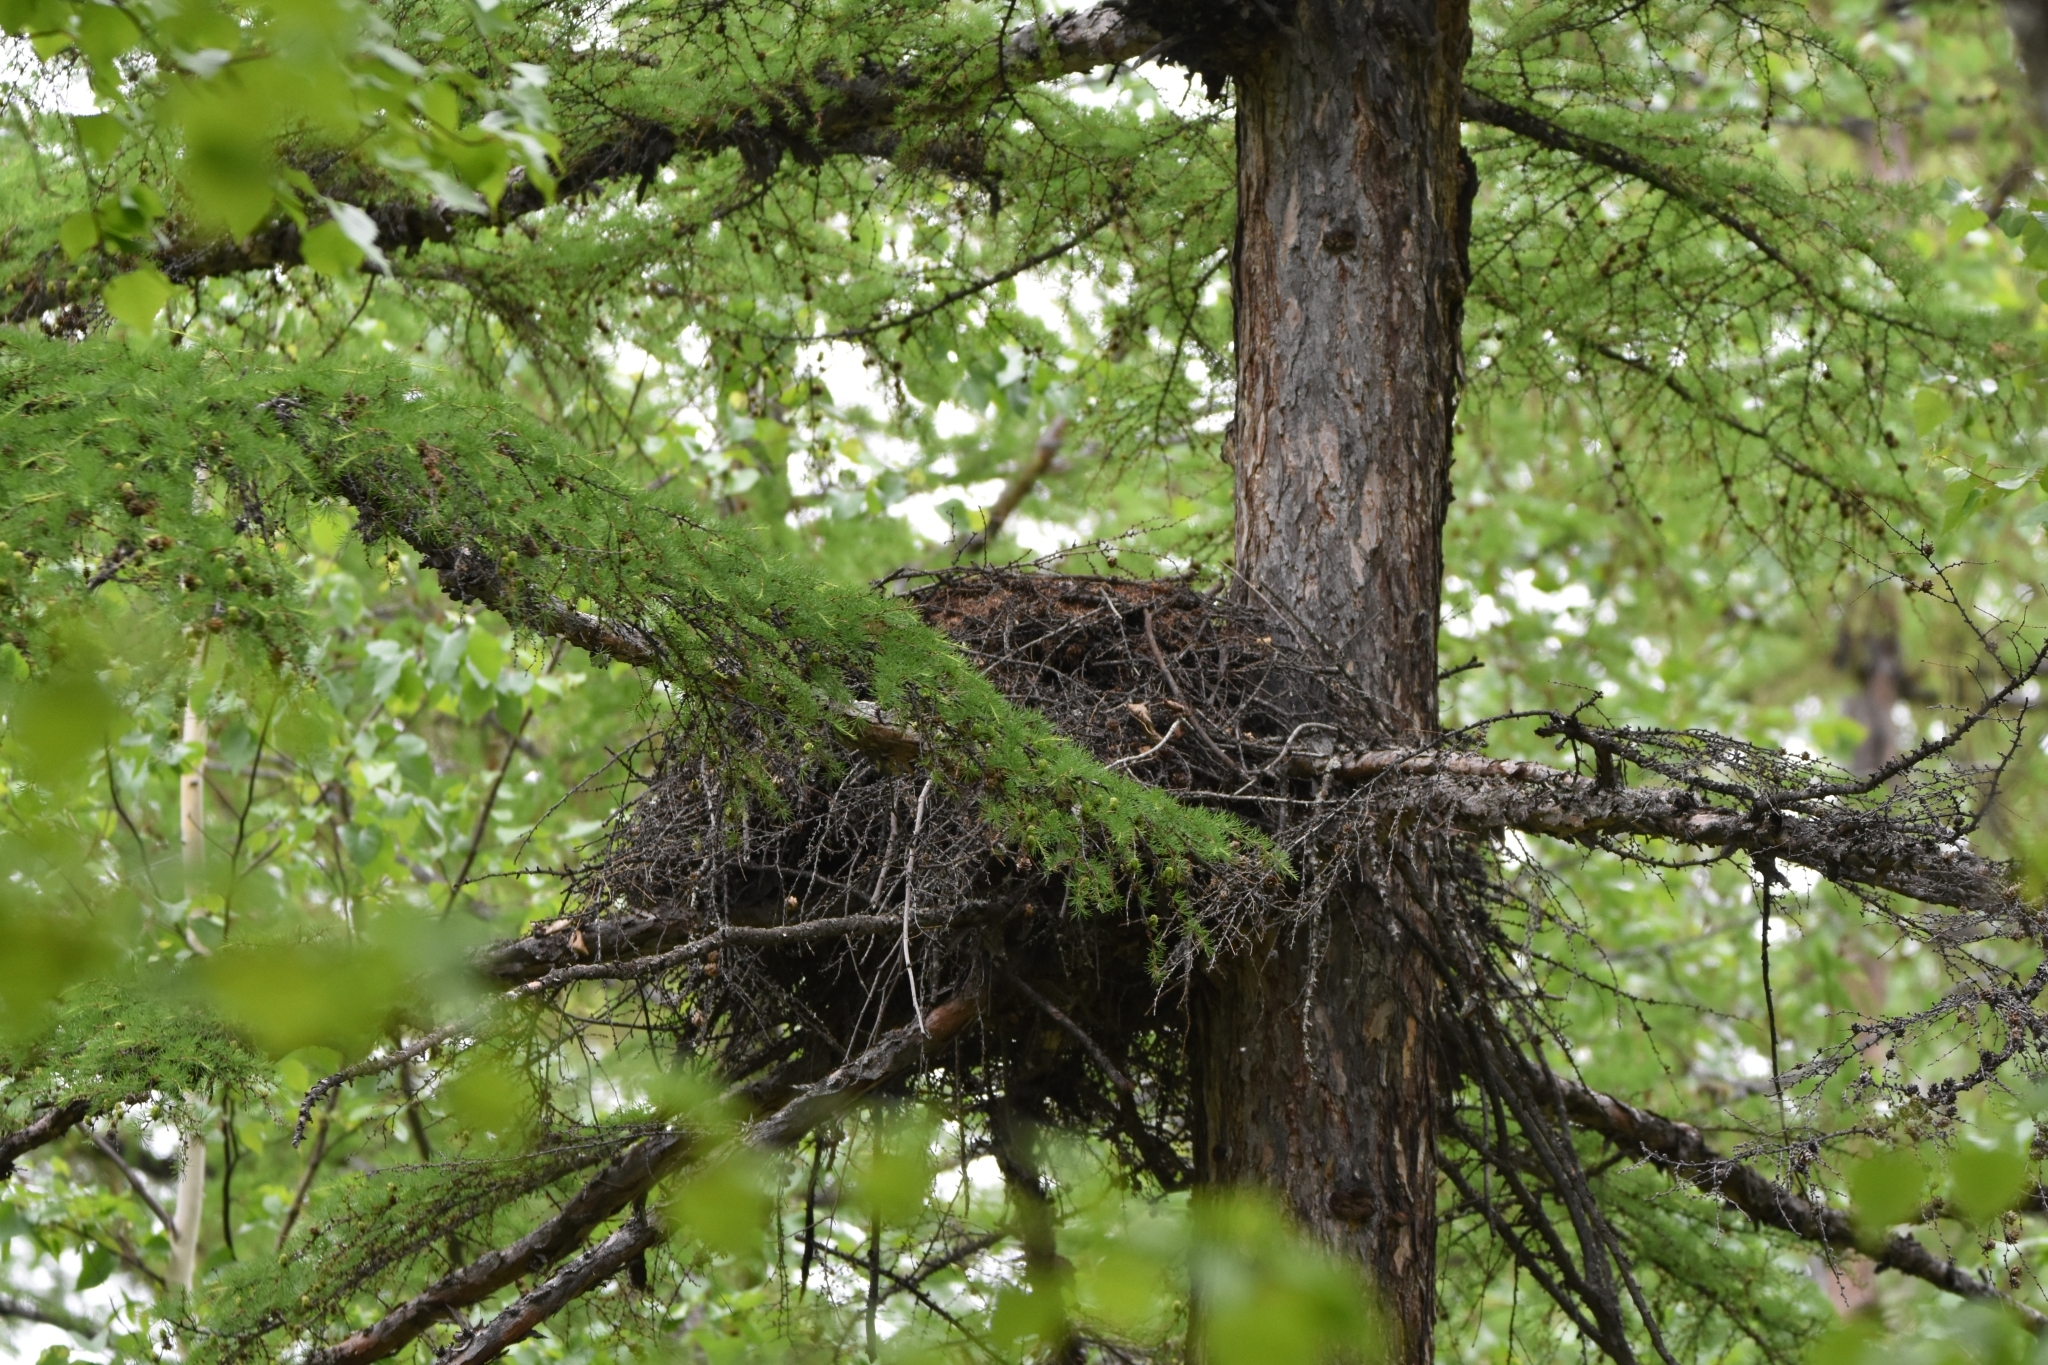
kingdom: Animalia
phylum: Chordata
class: Aves
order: Accipitriformes
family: Accipitridae
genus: Accipiter
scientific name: Accipiter gentilis
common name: Northern goshawk
